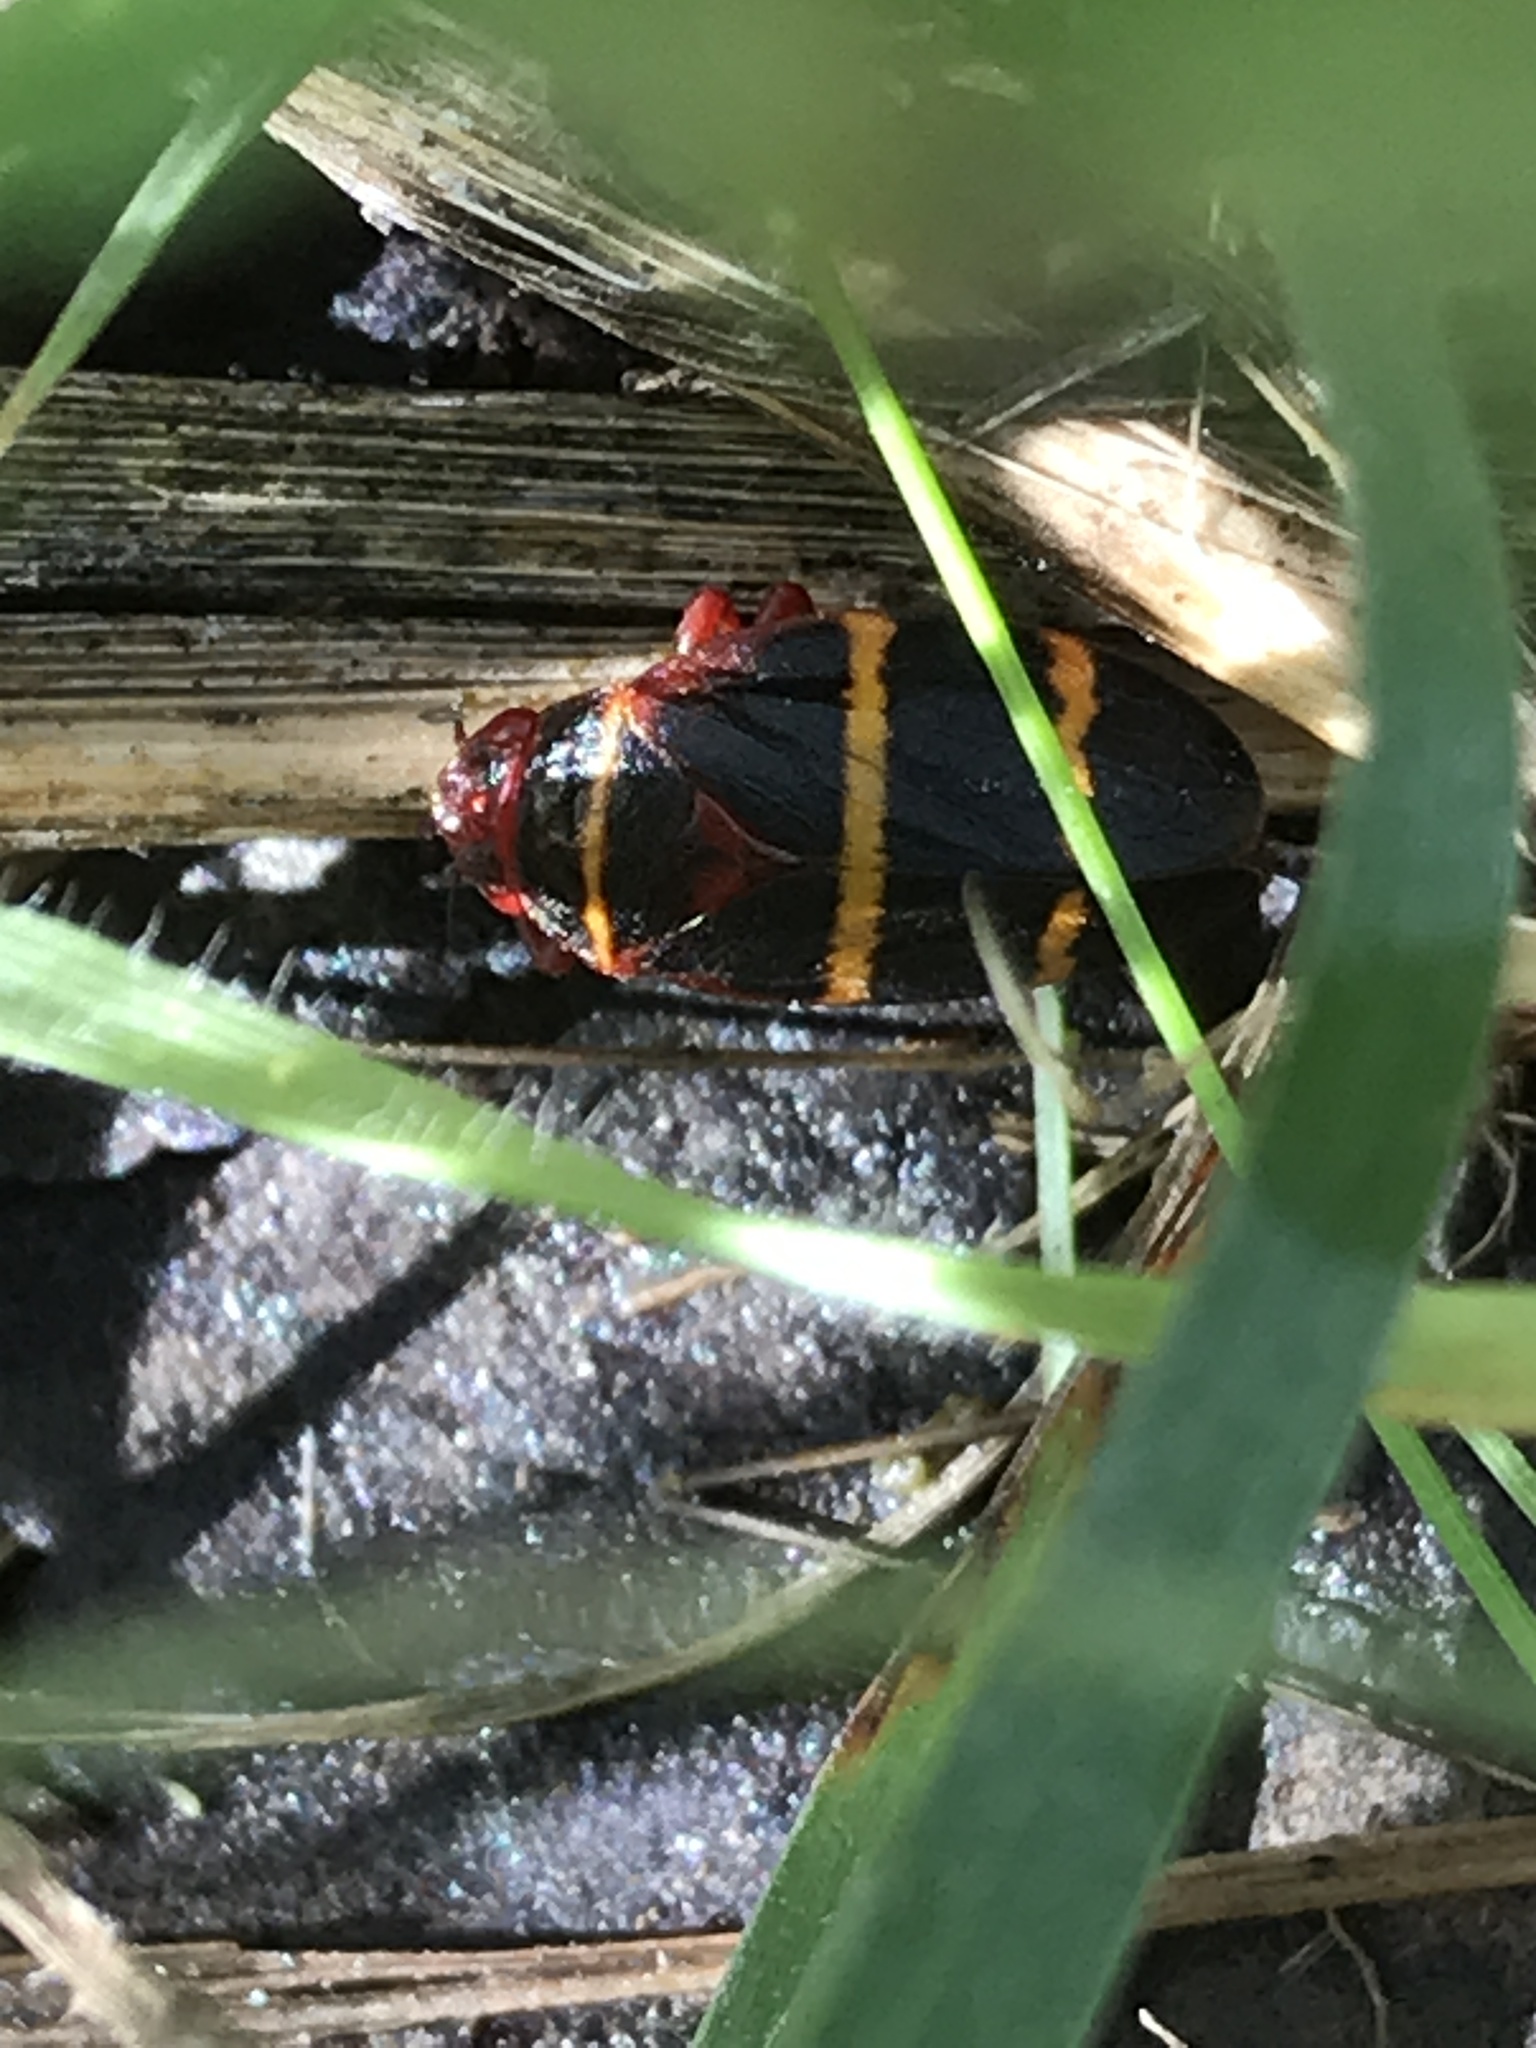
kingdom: Animalia
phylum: Arthropoda
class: Insecta
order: Hemiptera
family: Cercopidae
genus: Prosapia
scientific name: Prosapia bicincta
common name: Twolined spittlebug
